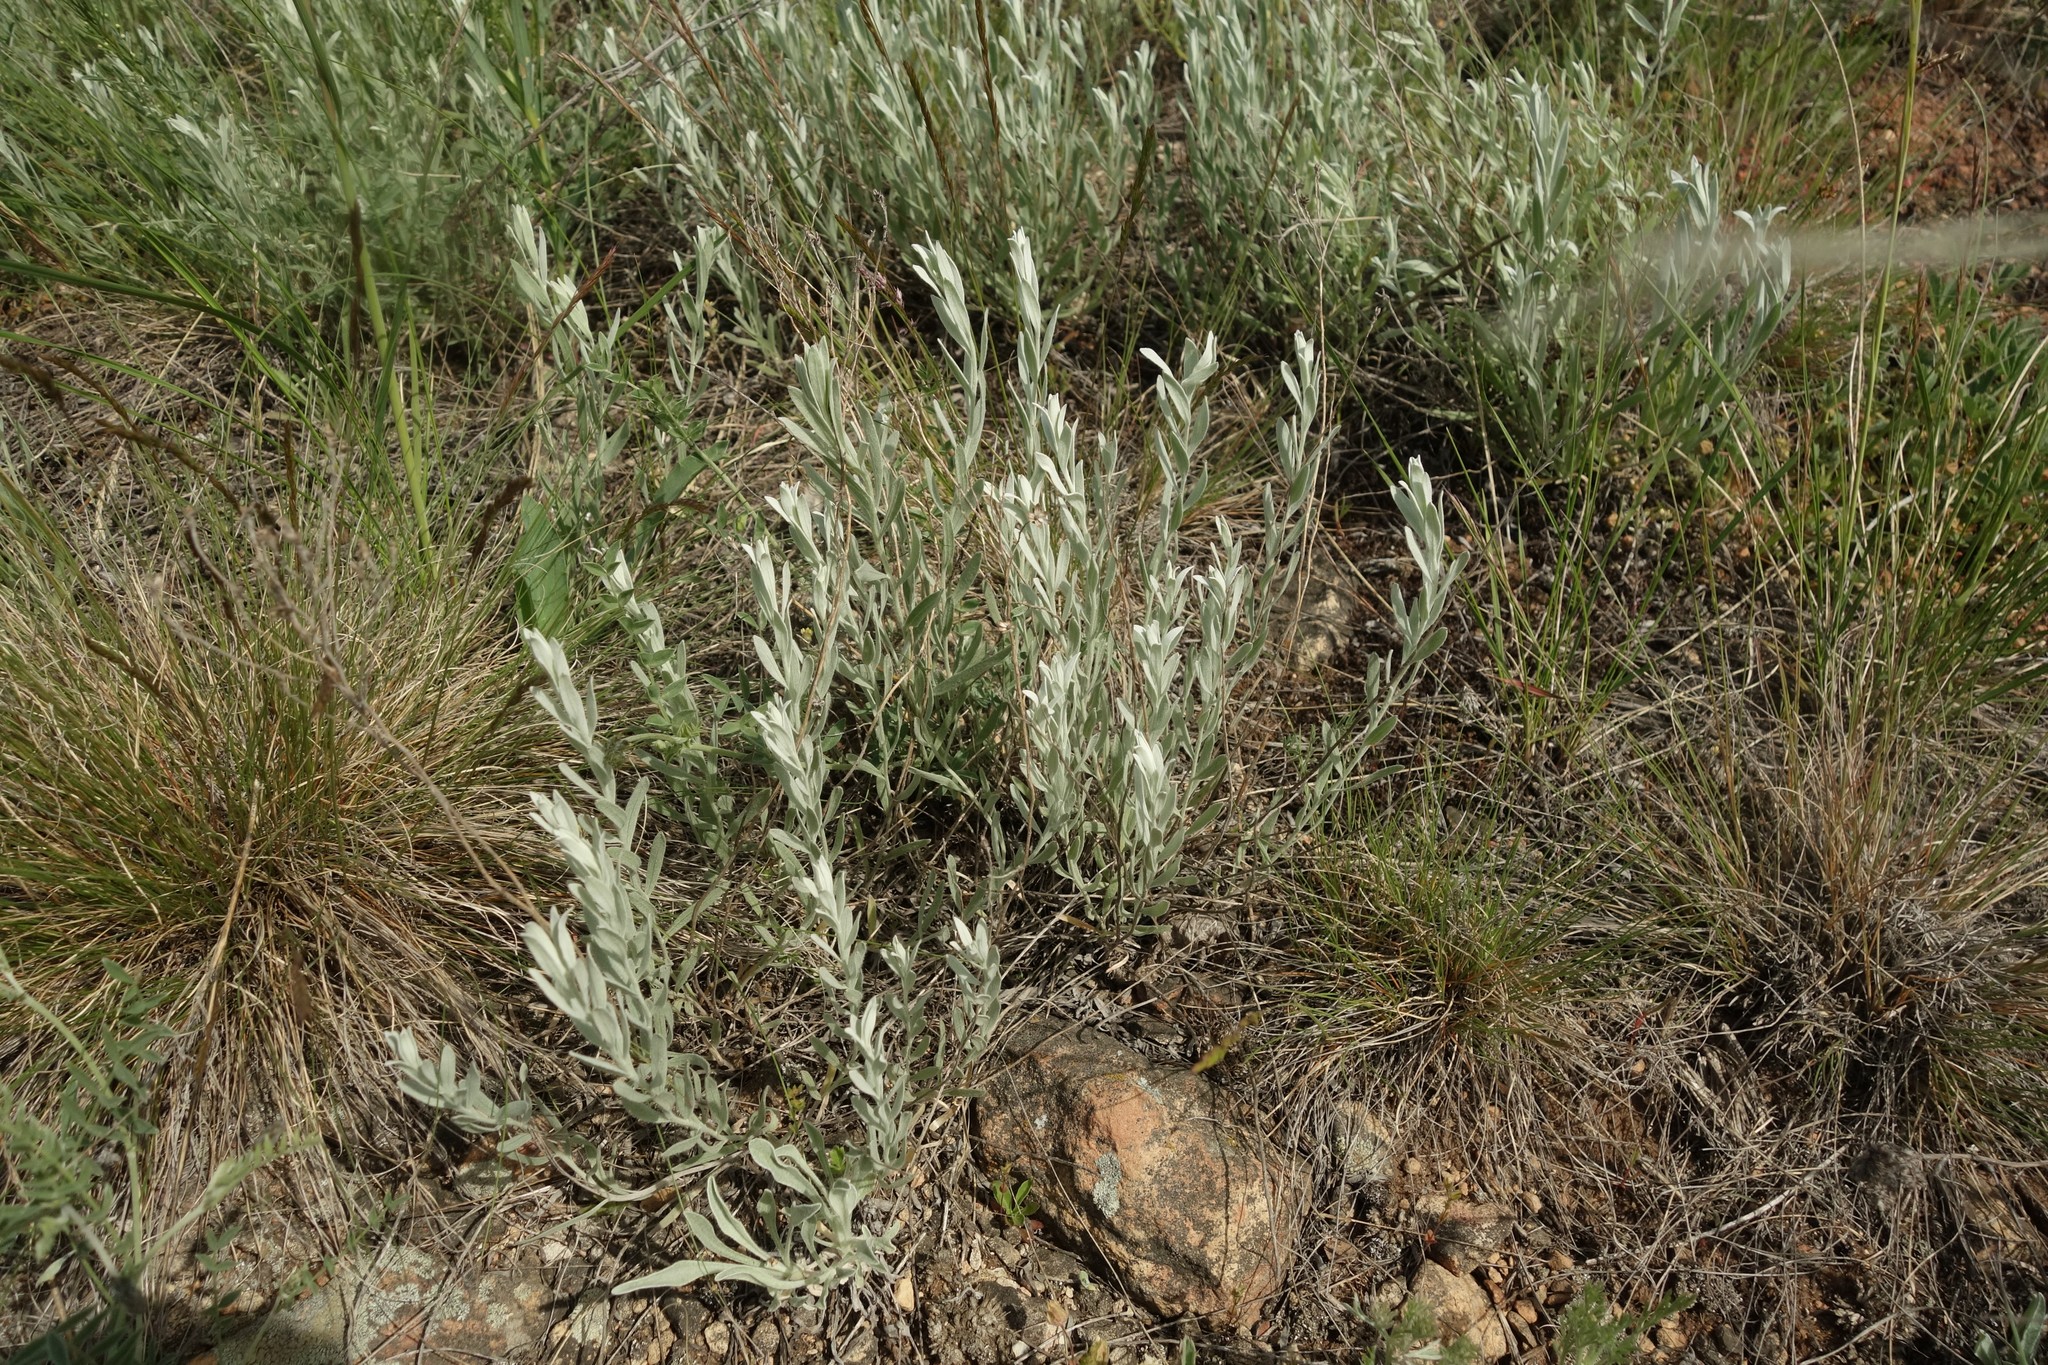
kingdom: Plantae
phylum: Tracheophyta
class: Magnoliopsida
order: Asterales
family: Asteraceae
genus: Galatella
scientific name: Galatella villosa
